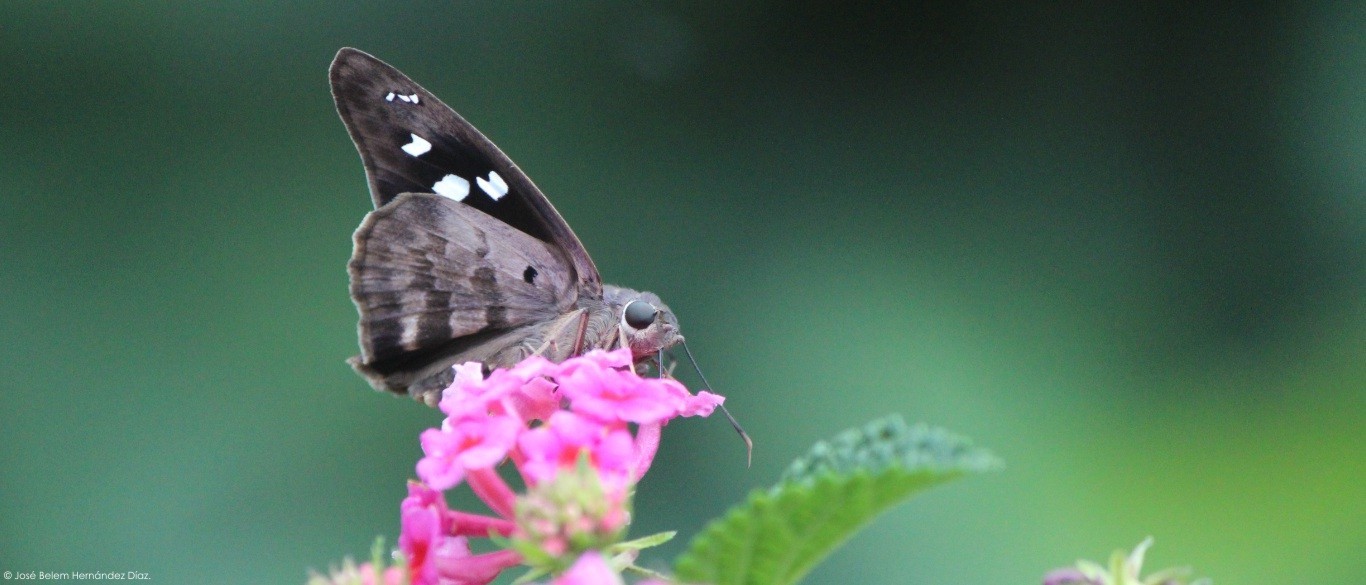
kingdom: Animalia
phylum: Arthropoda
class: Insecta
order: Lepidoptera
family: Hesperiidae
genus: Polygonus
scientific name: Polygonus leo
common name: Hammoch skipper
